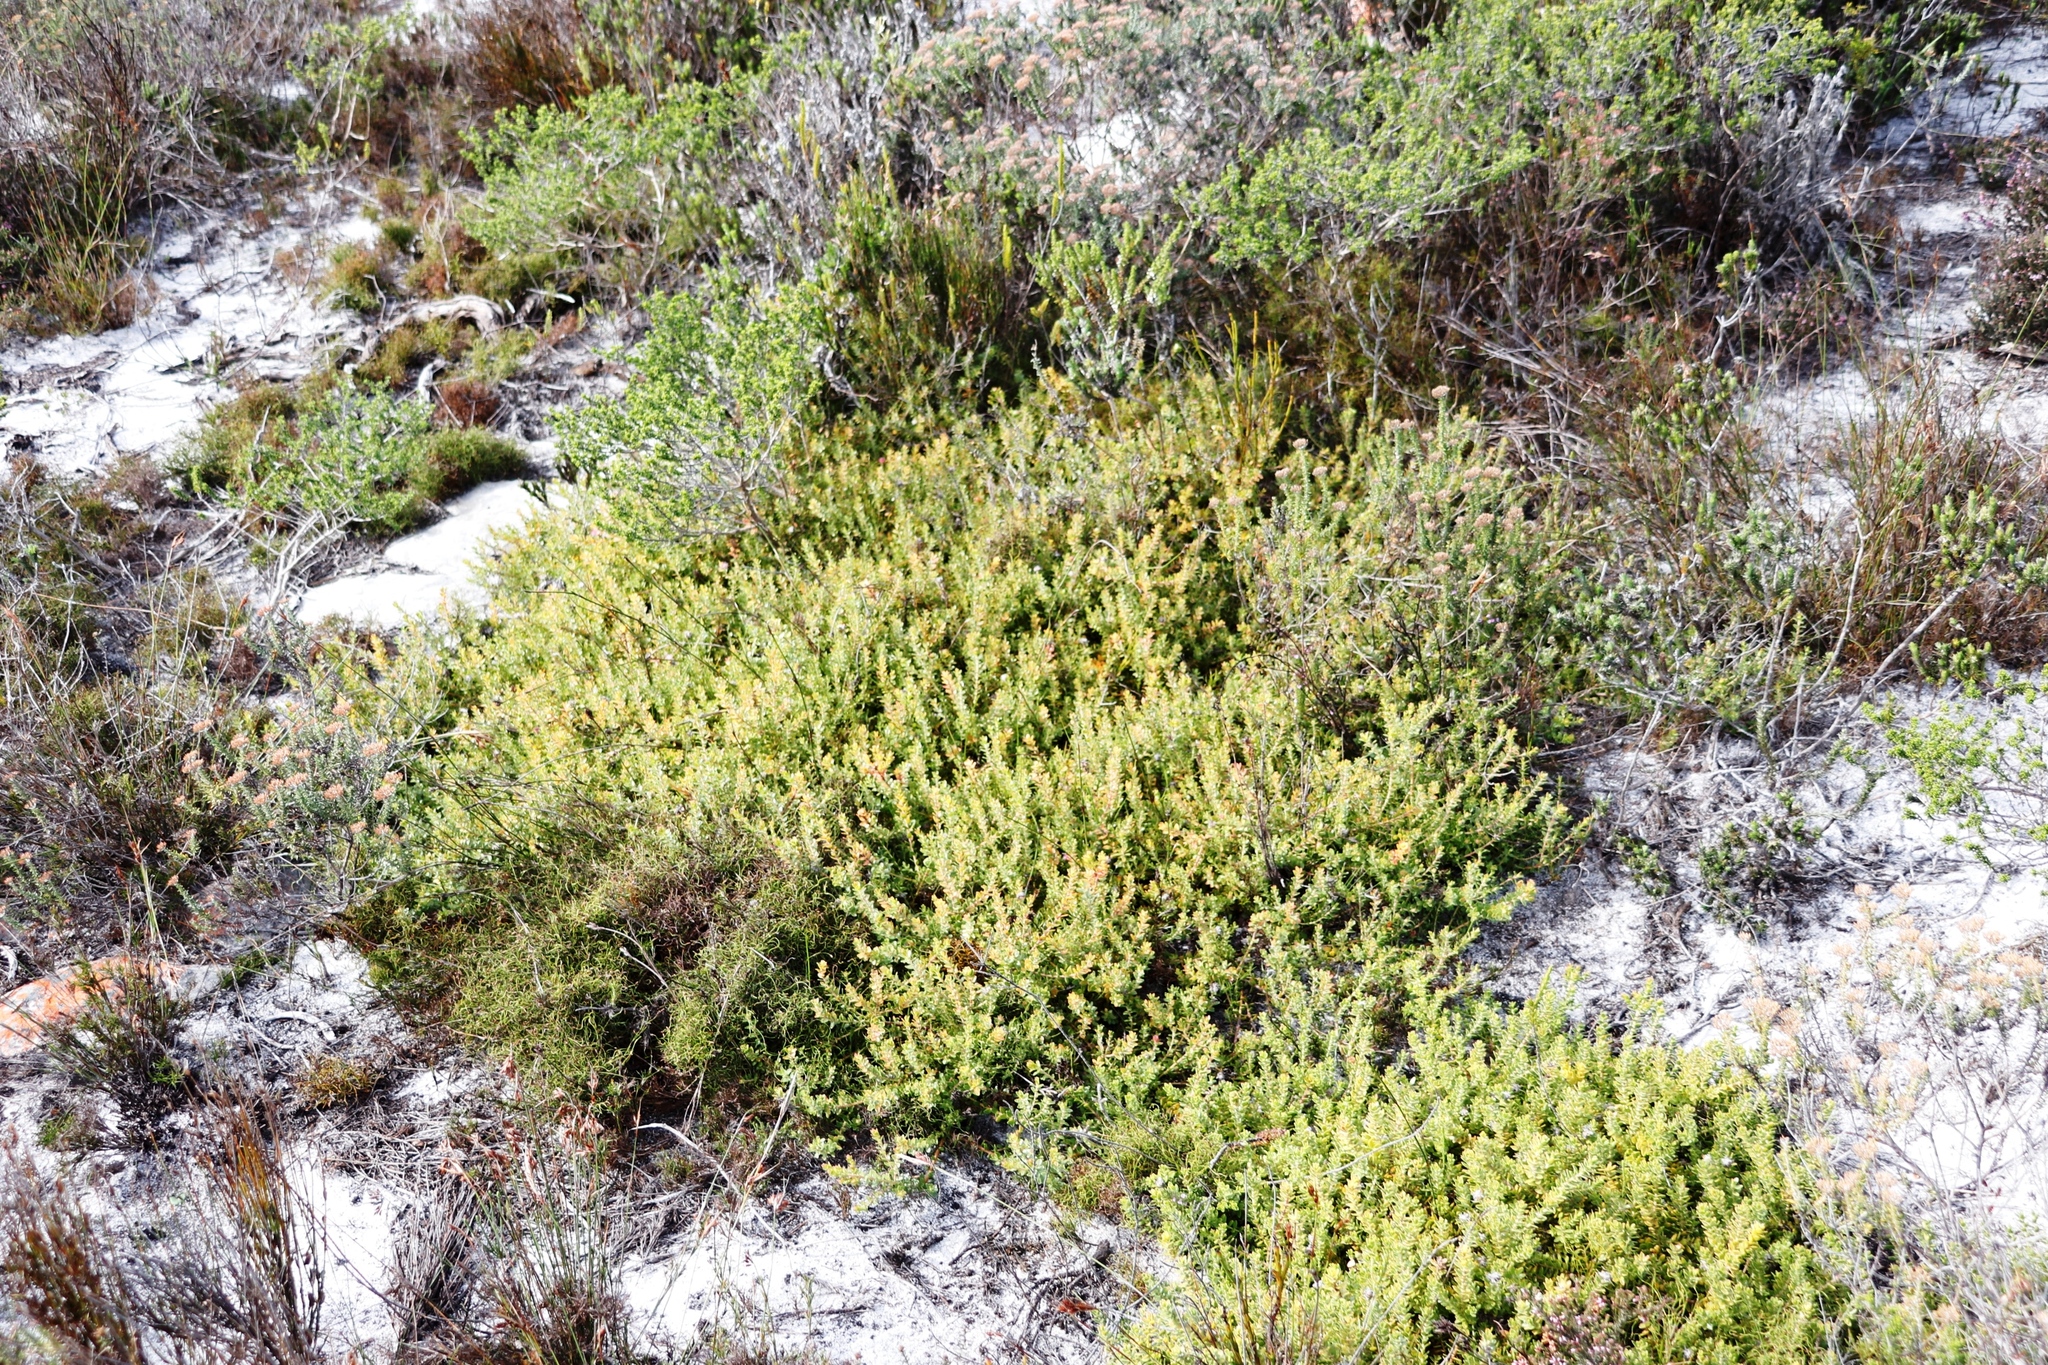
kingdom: Plantae
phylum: Tracheophyta
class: Magnoliopsida
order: Proteales
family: Proteaceae
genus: Diastella
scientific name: Diastella divaricata
